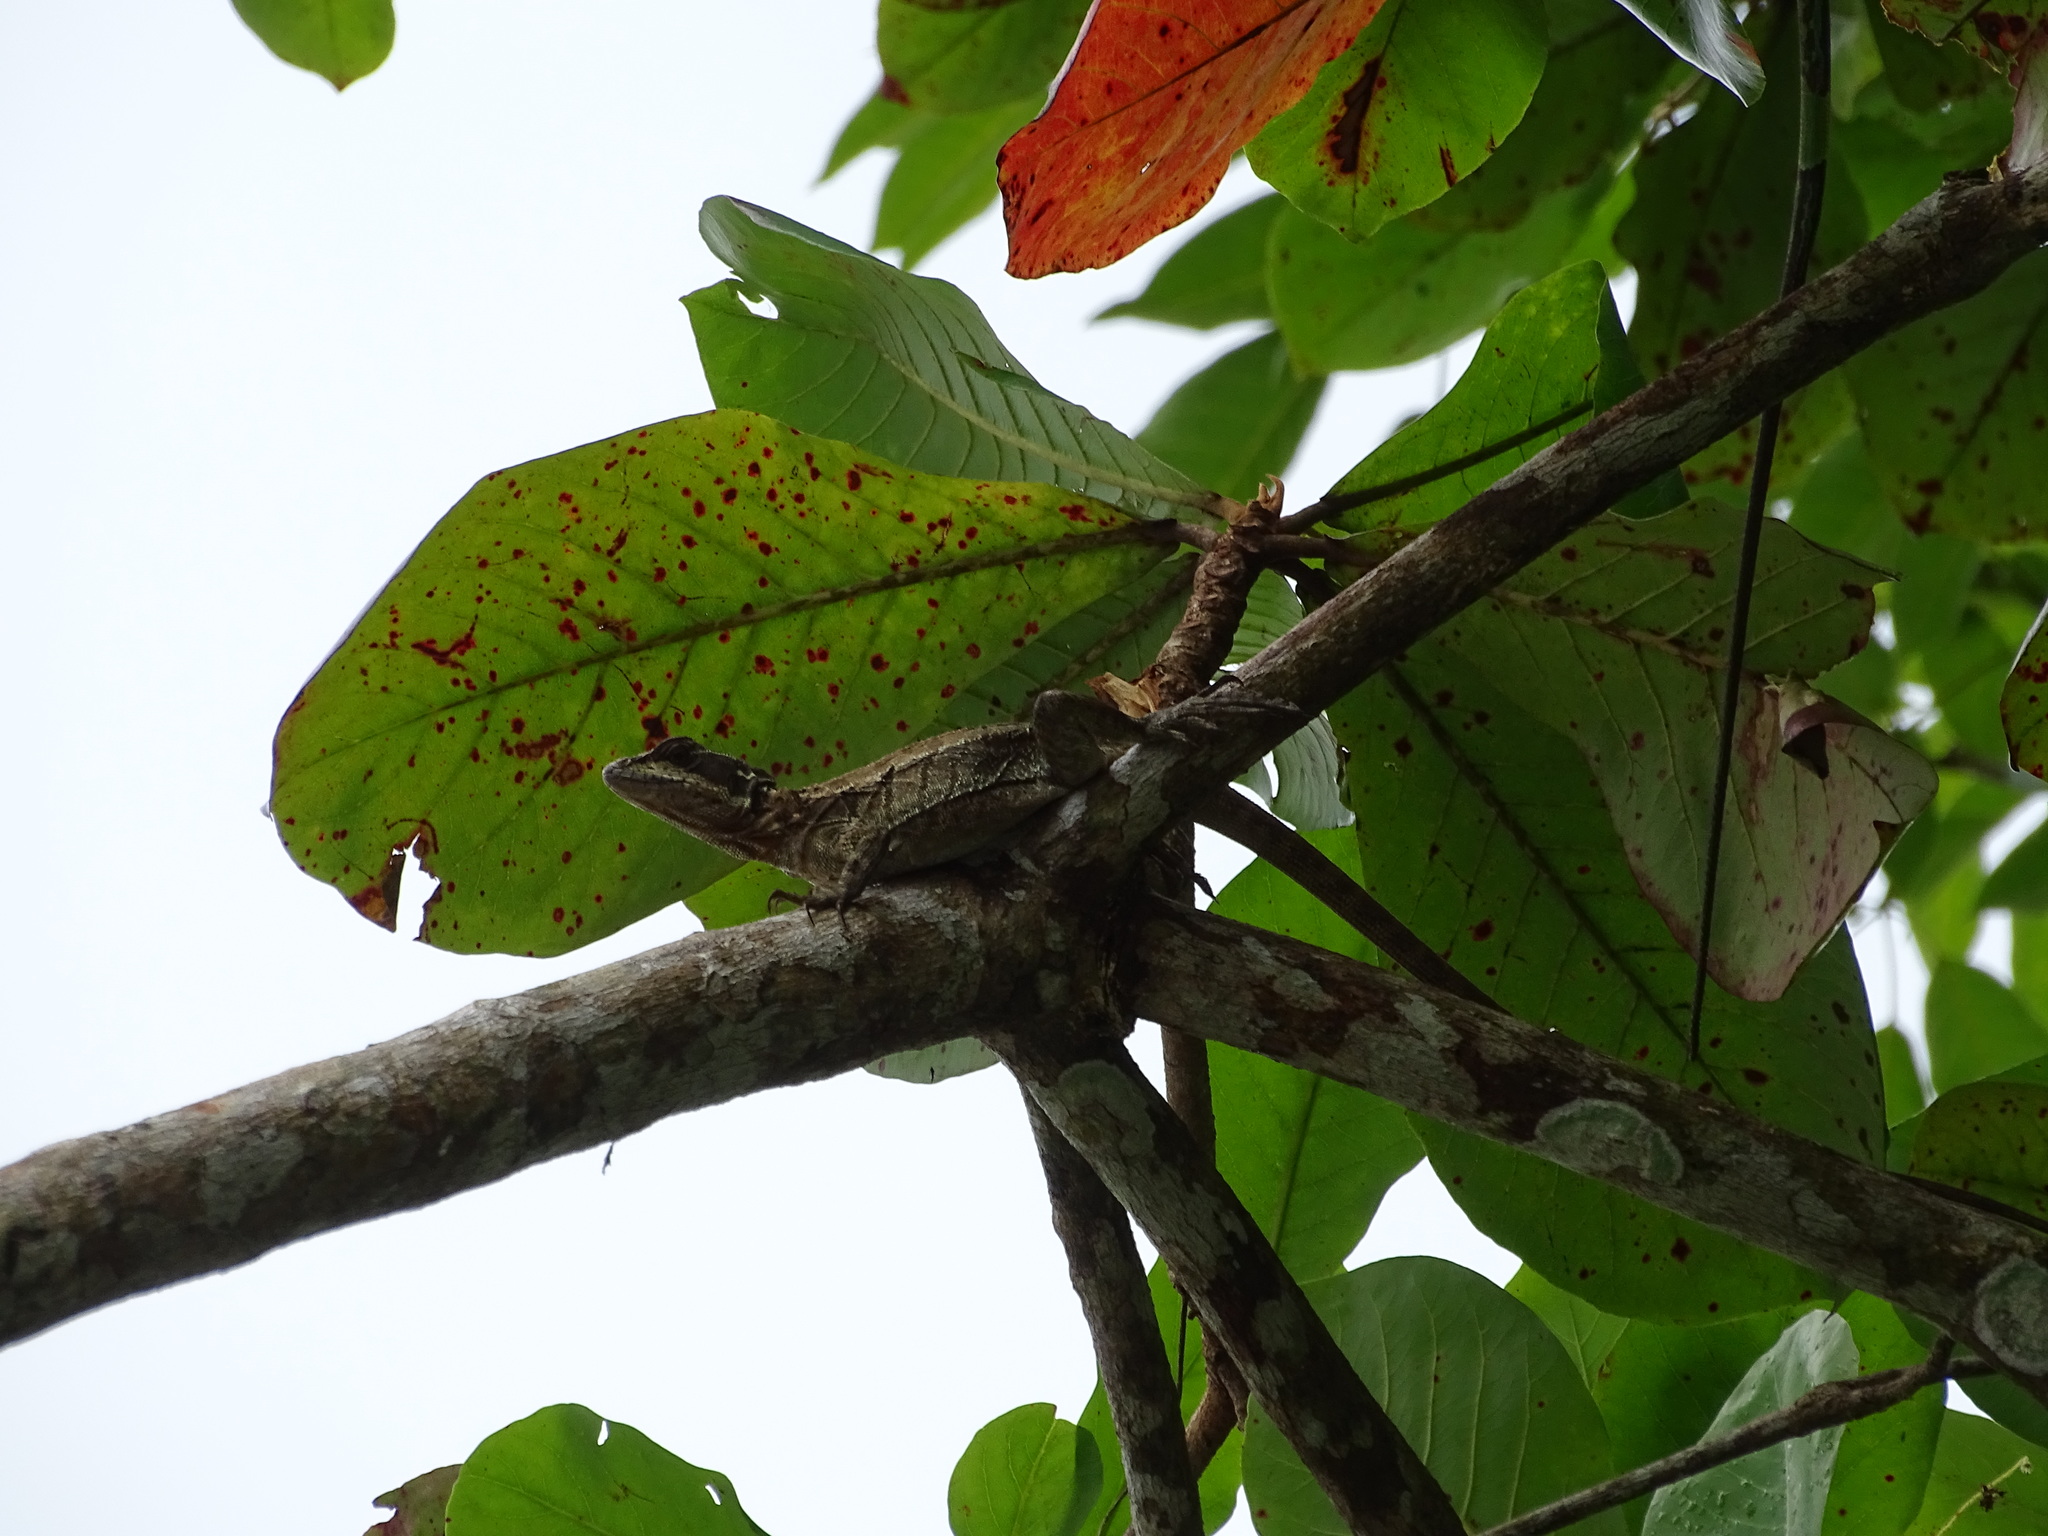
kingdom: Animalia
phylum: Chordata
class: Squamata
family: Corytophanidae
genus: Basiliscus
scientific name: Basiliscus basiliscus
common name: Common basilisk
